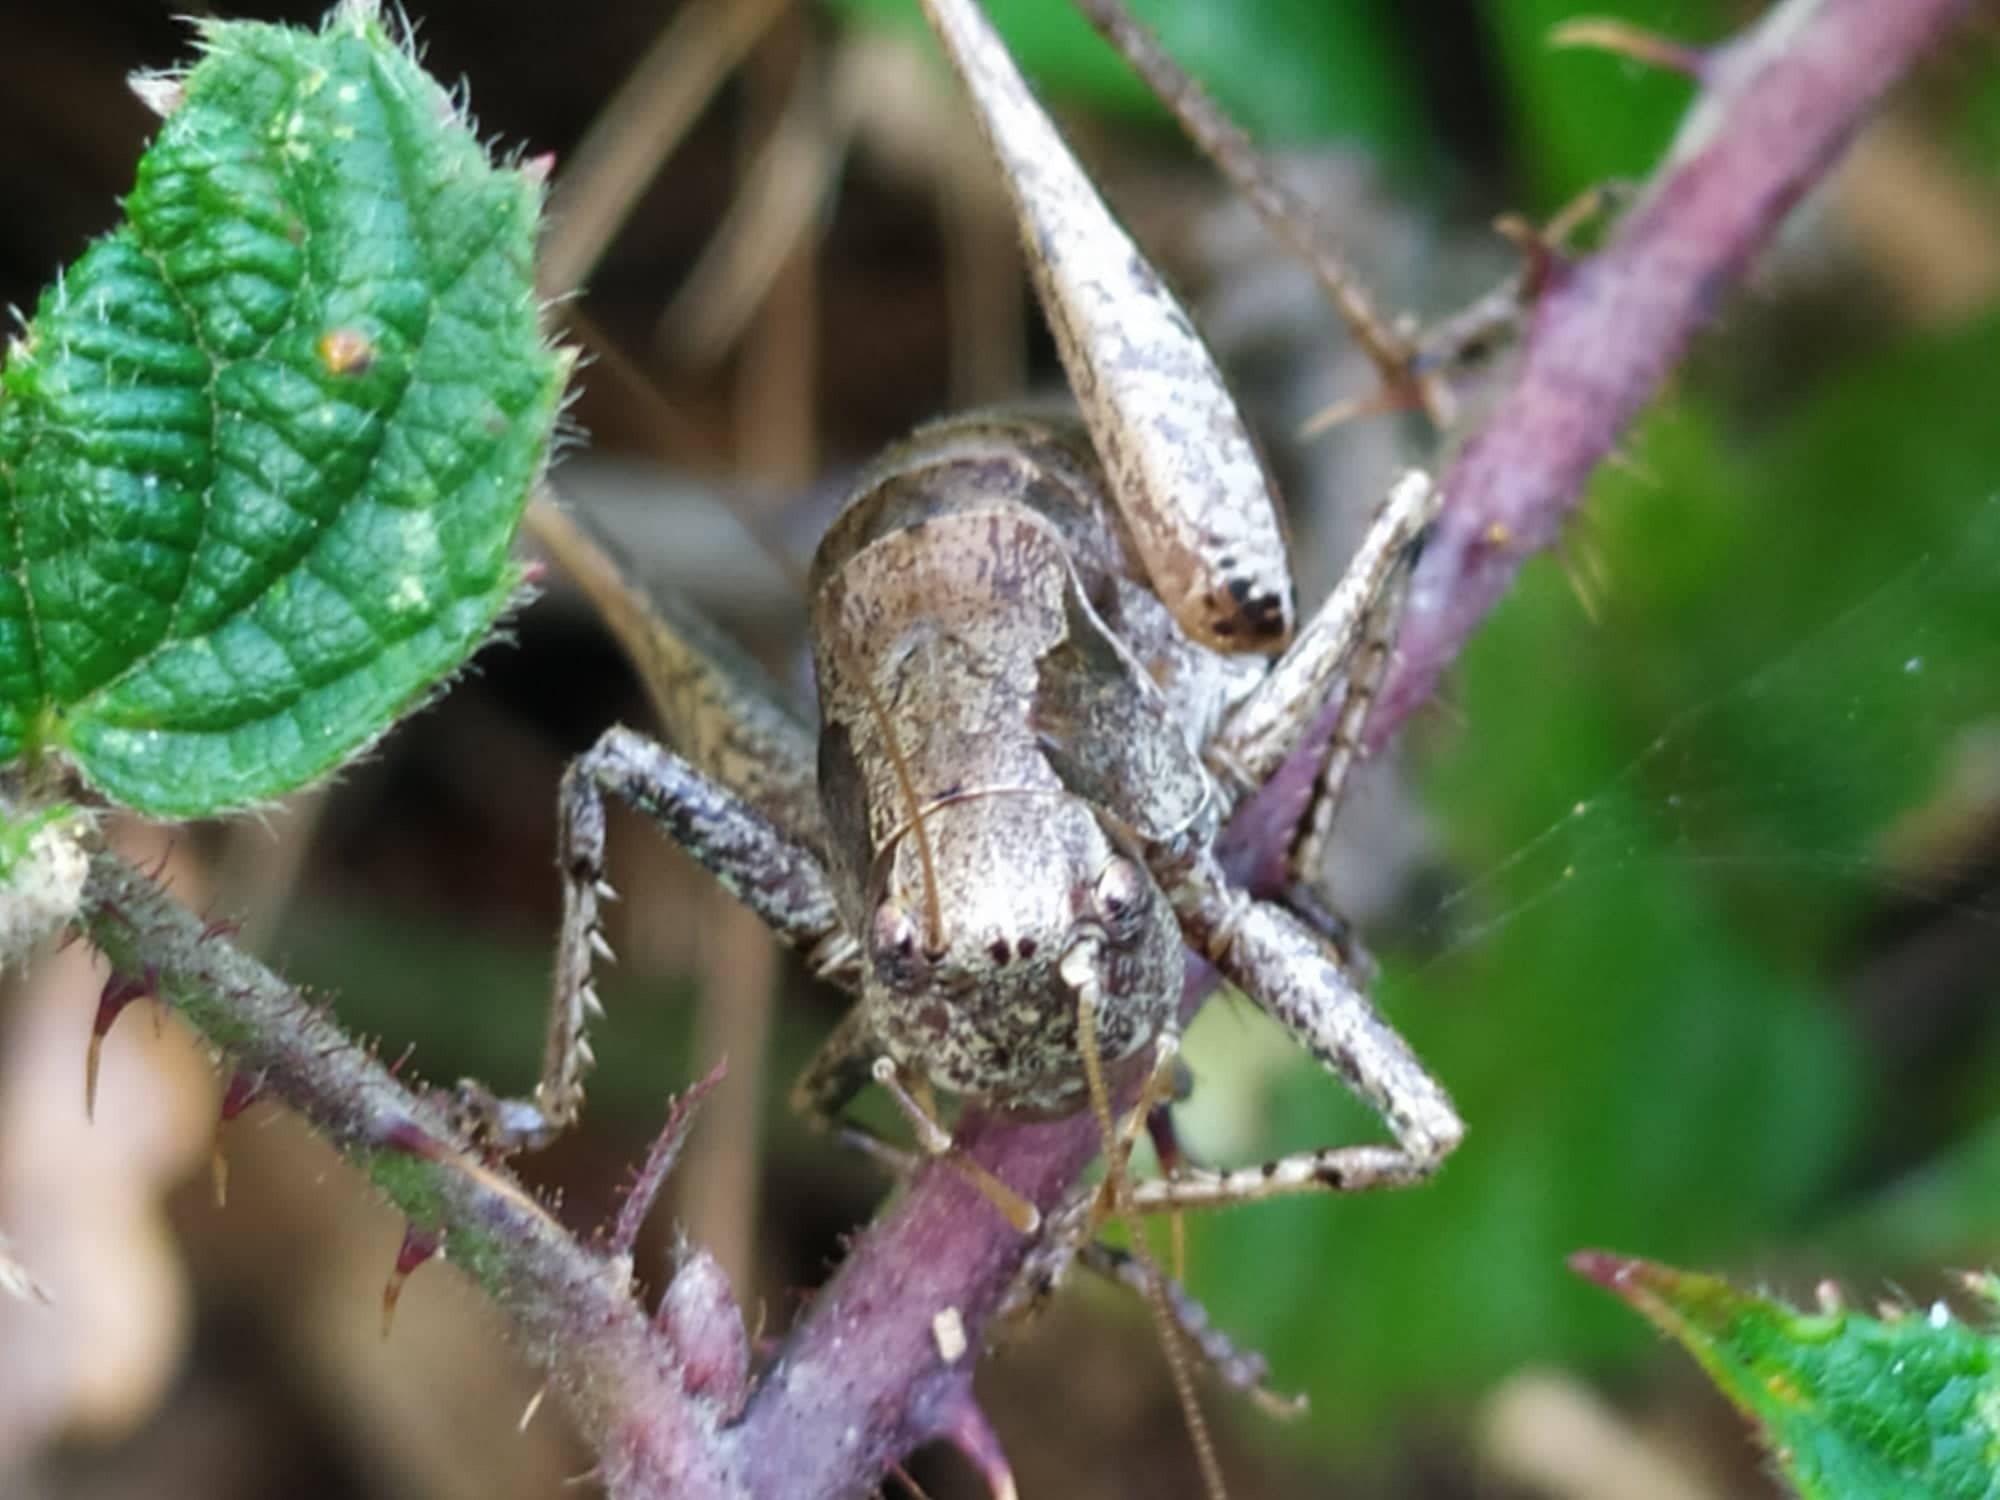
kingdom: Animalia
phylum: Arthropoda
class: Insecta
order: Orthoptera
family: Tettigoniidae
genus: Pholidoptera
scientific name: Pholidoptera griseoaptera
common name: Dark bush-cricket
